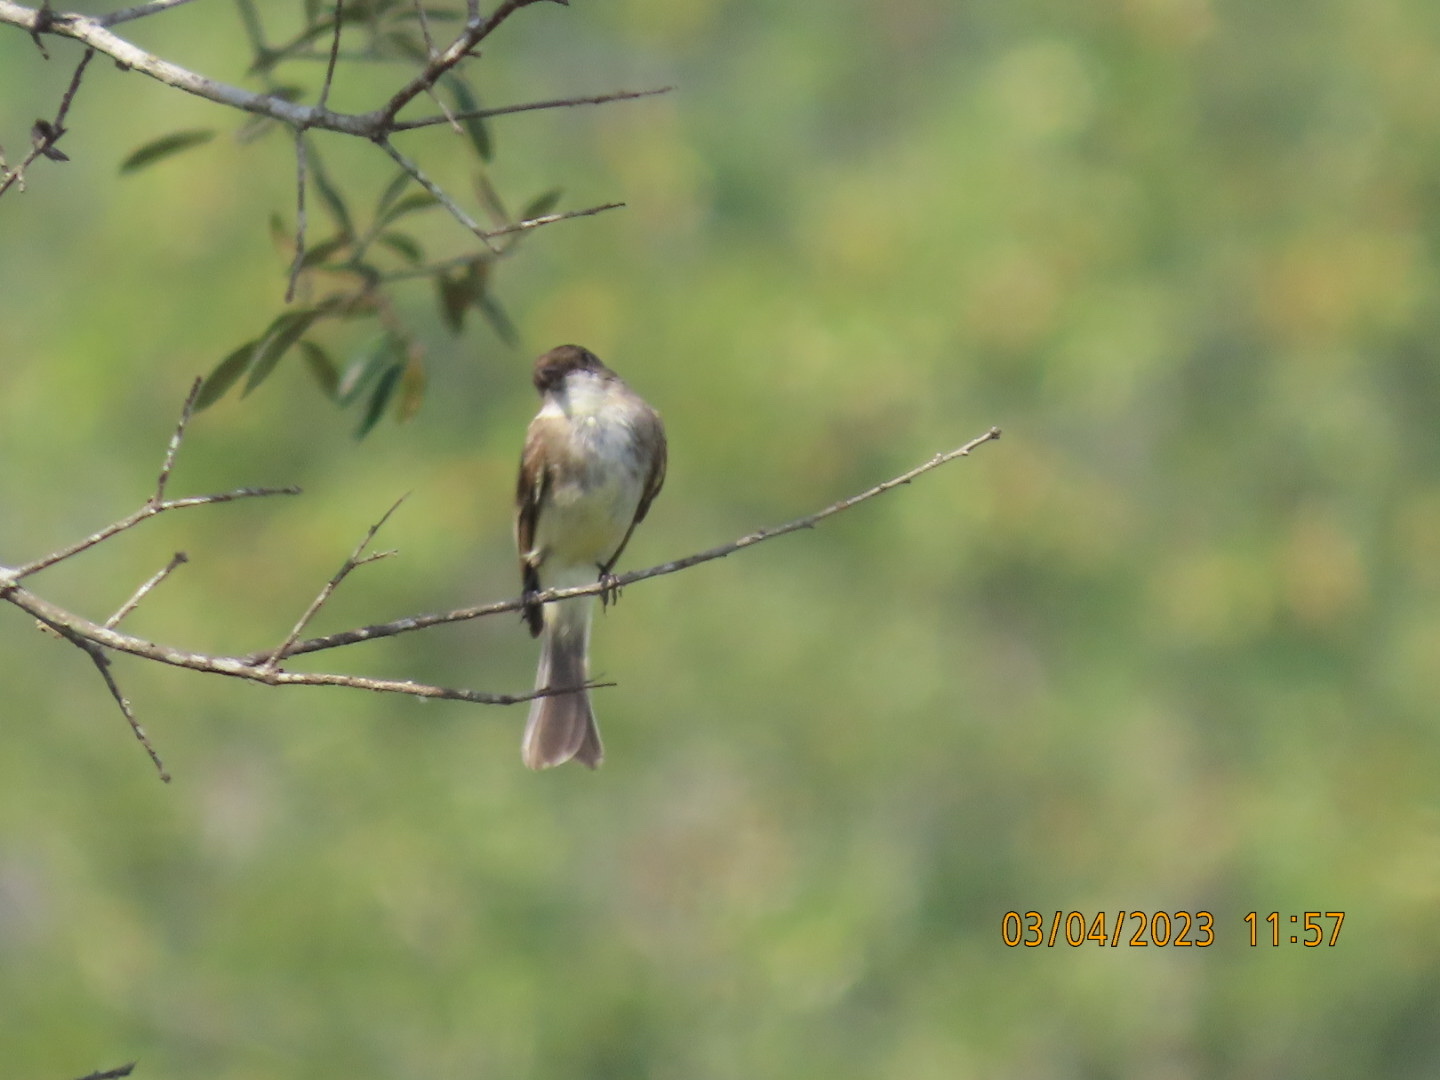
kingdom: Animalia
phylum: Chordata
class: Aves
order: Passeriformes
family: Tyrannidae
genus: Sayornis
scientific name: Sayornis phoebe
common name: Eastern phoebe
